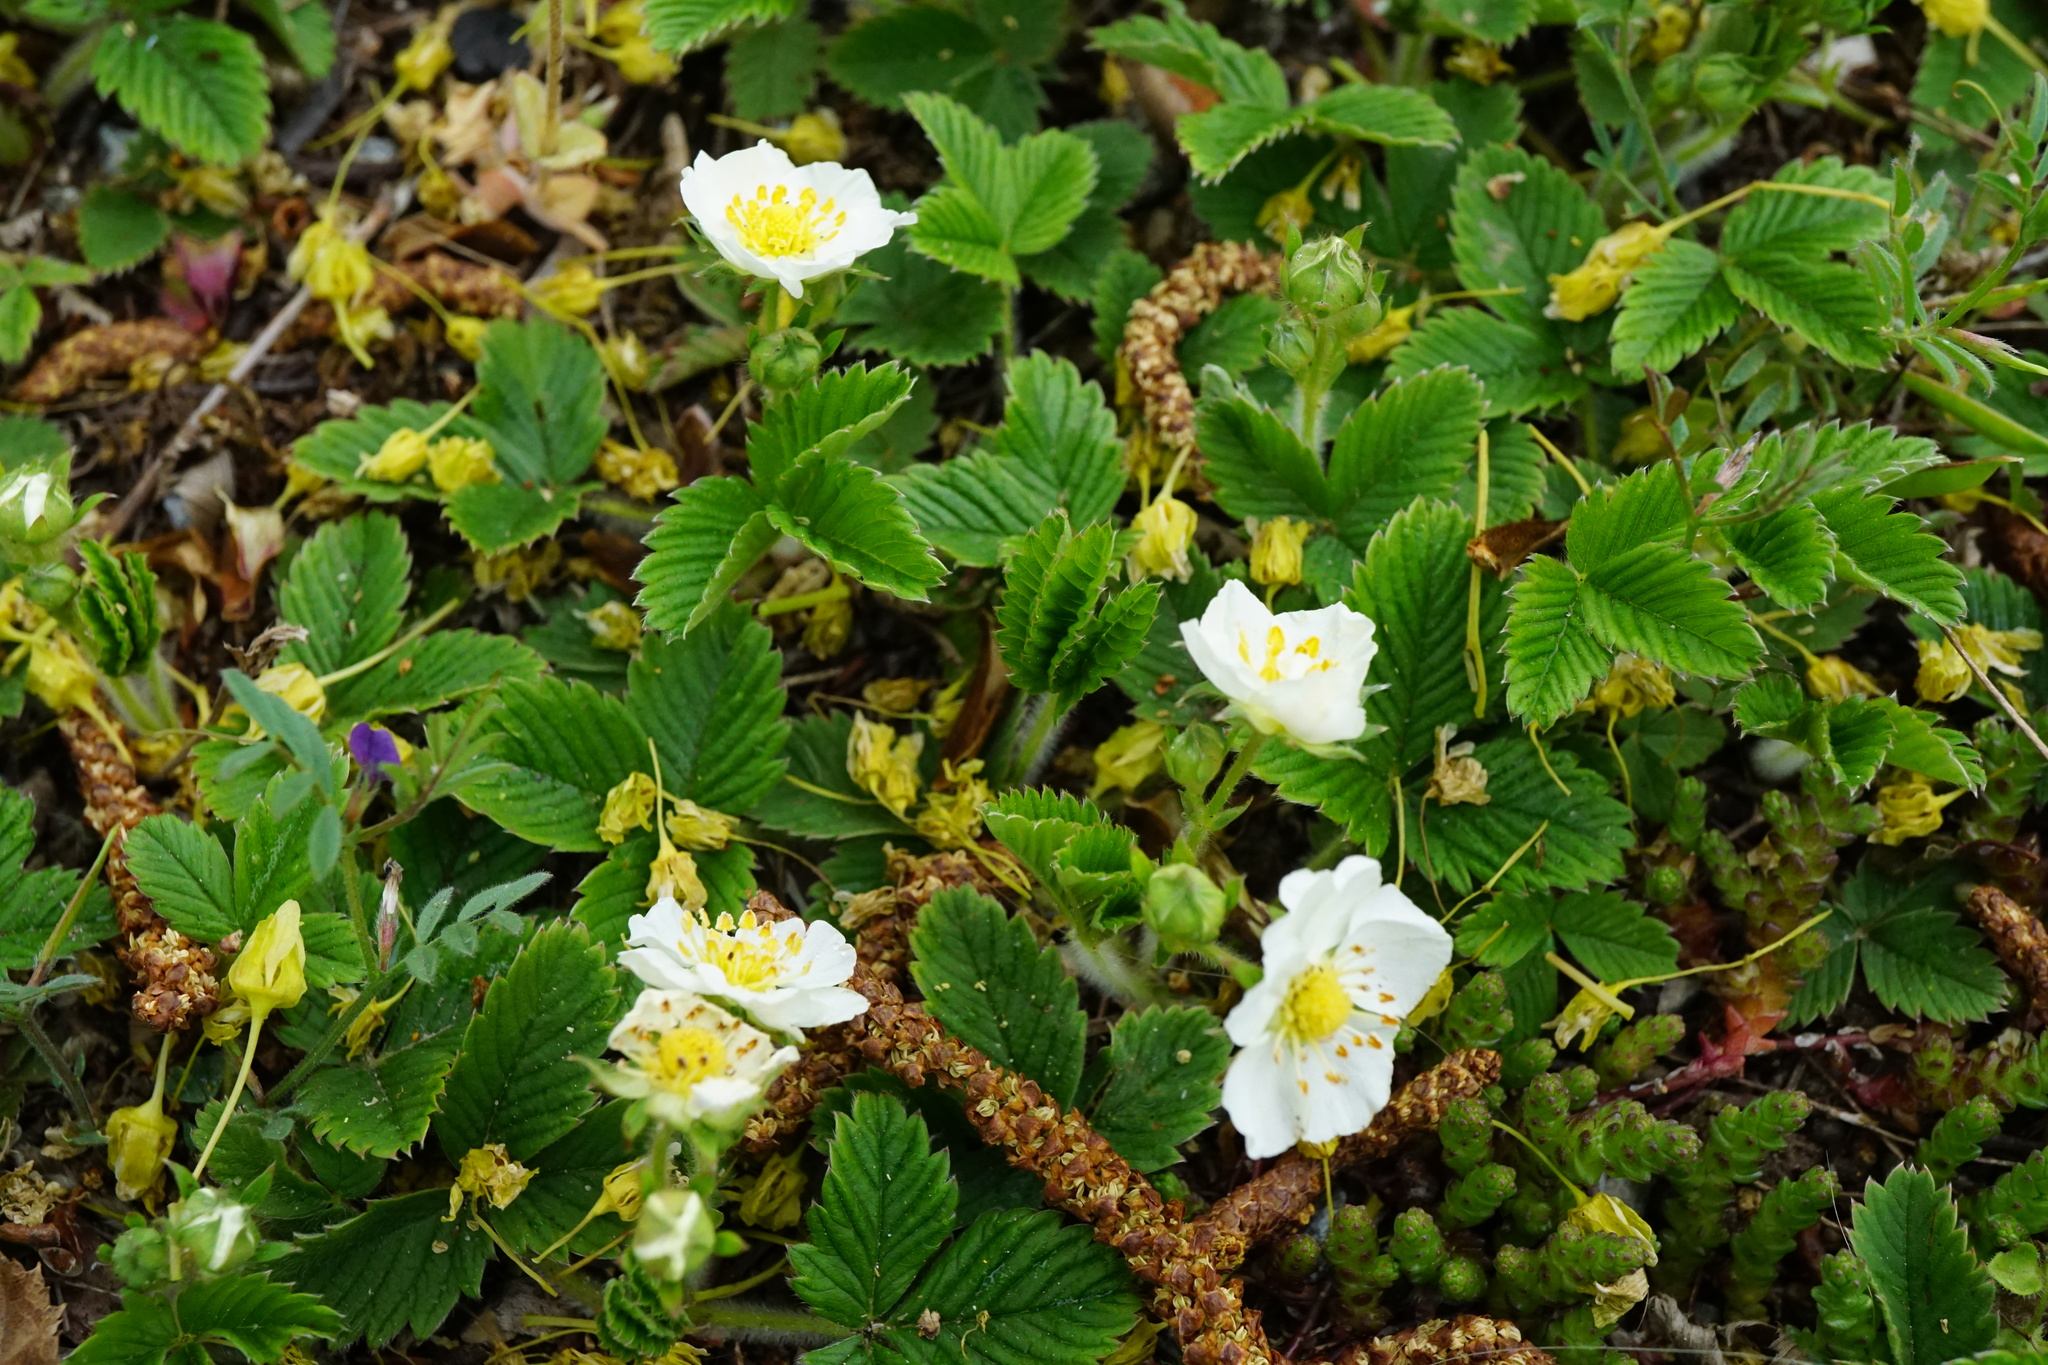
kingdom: Plantae
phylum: Tracheophyta
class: Magnoliopsida
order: Rosales
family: Rosaceae
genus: Fragaria
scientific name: Fragaria viridis
